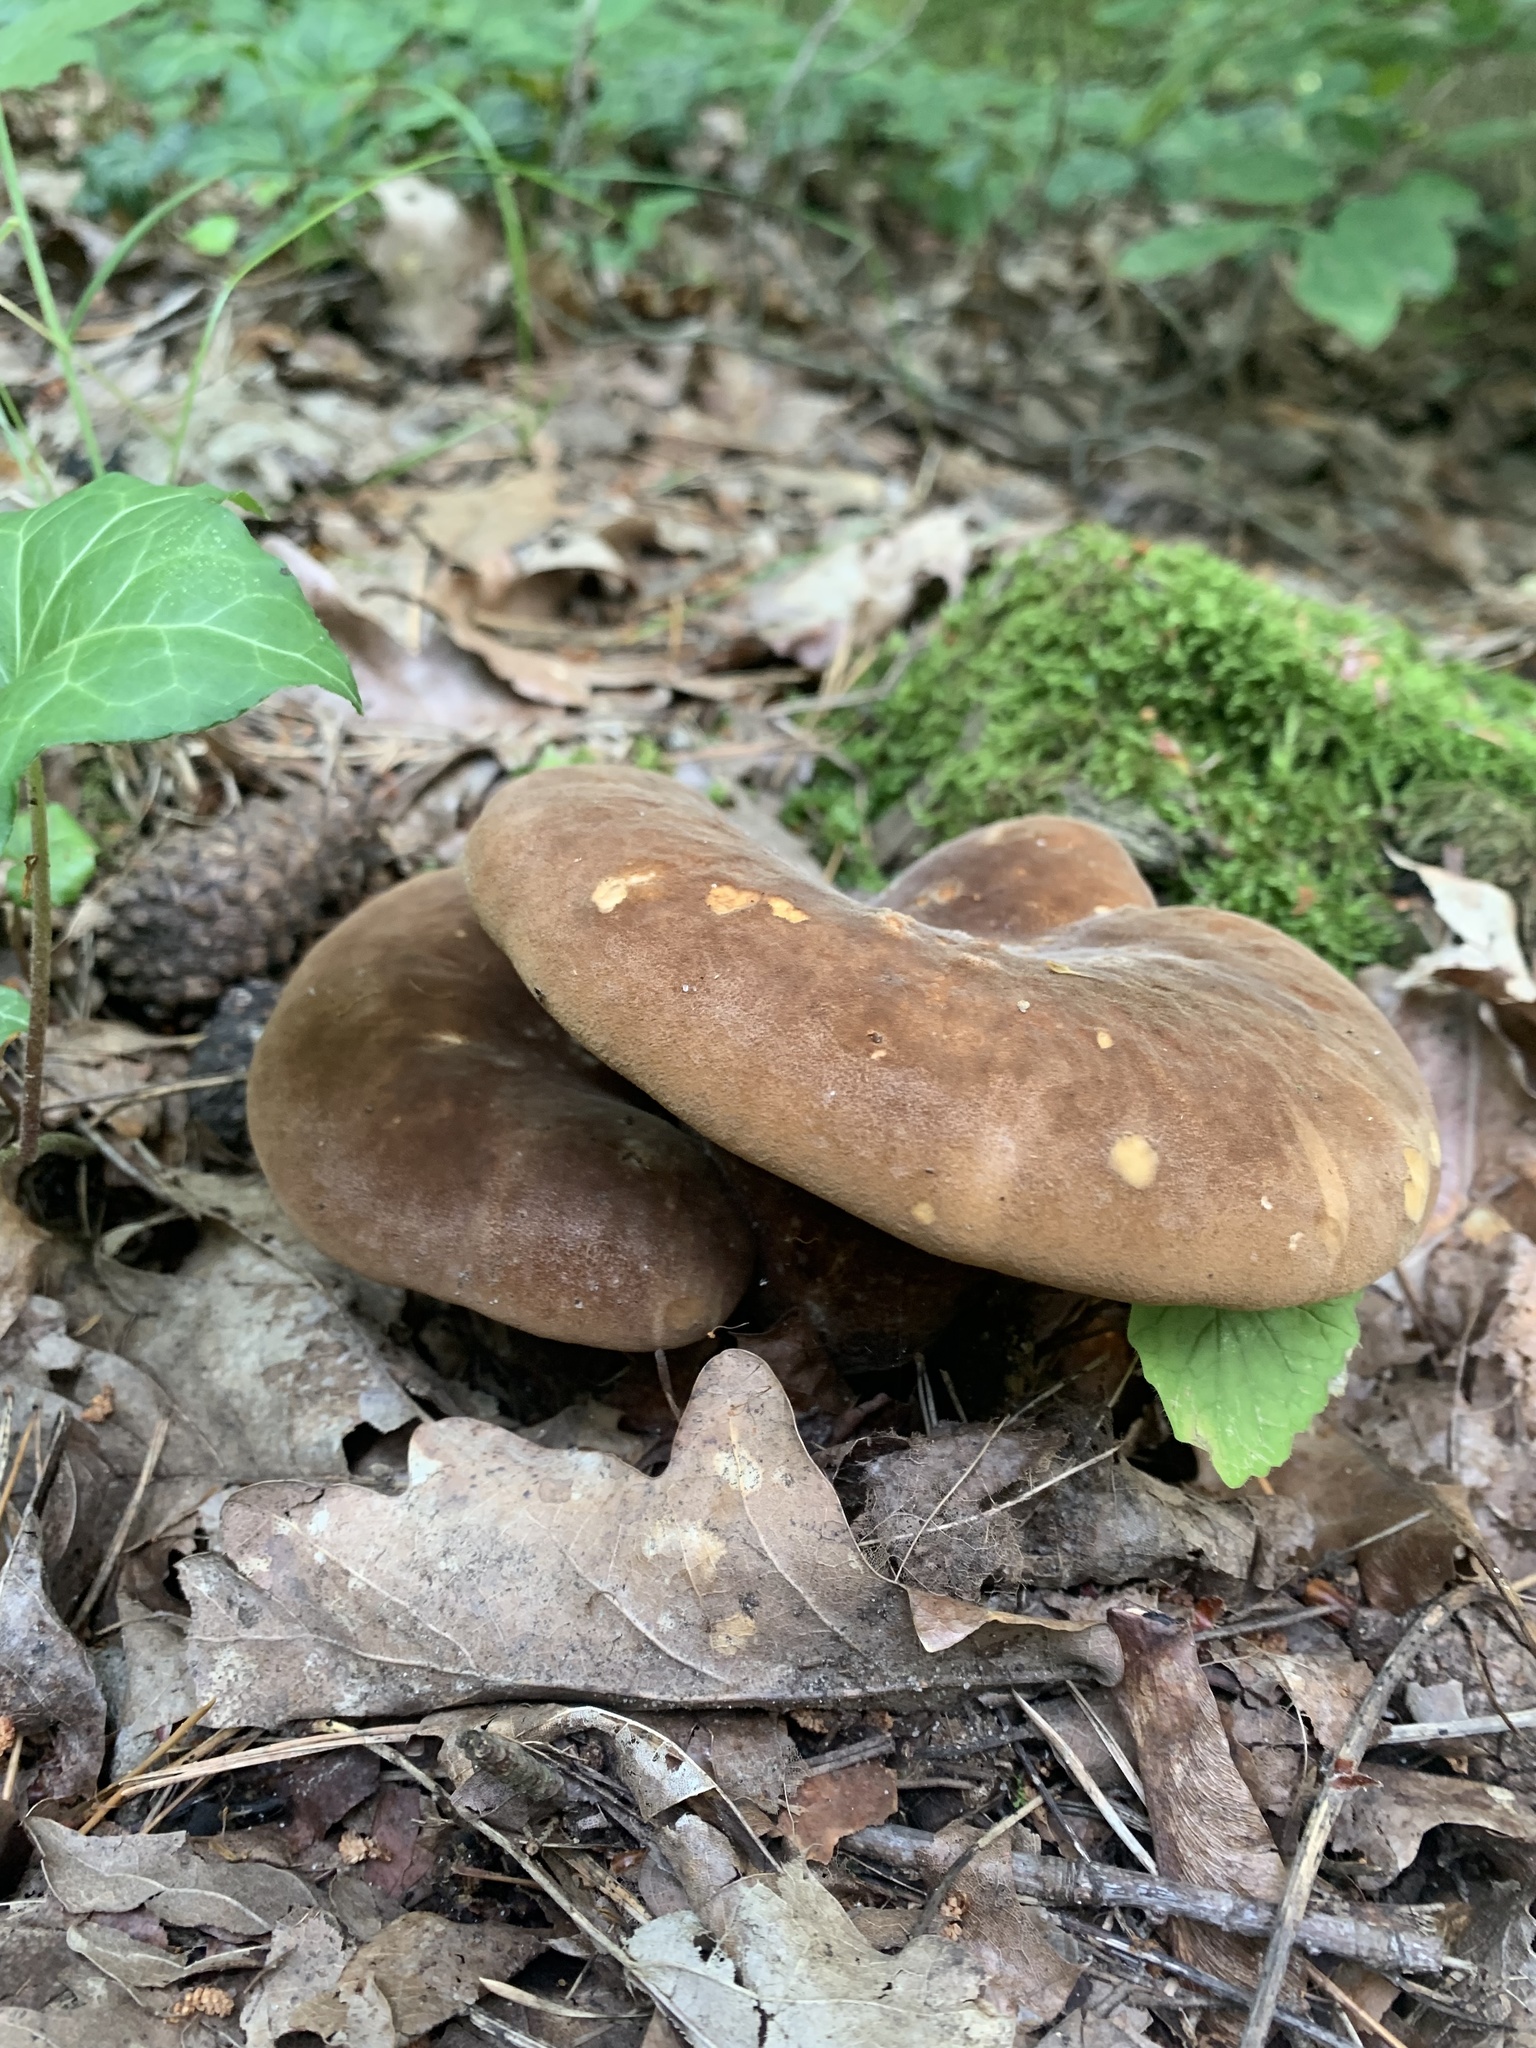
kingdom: Fungi
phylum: Basidiomycota
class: Agaricomycetes
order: Boletales
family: Tapinellaceae
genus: Tapinella
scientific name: Tapinella atrotomentosa
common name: Velvet rollrim
